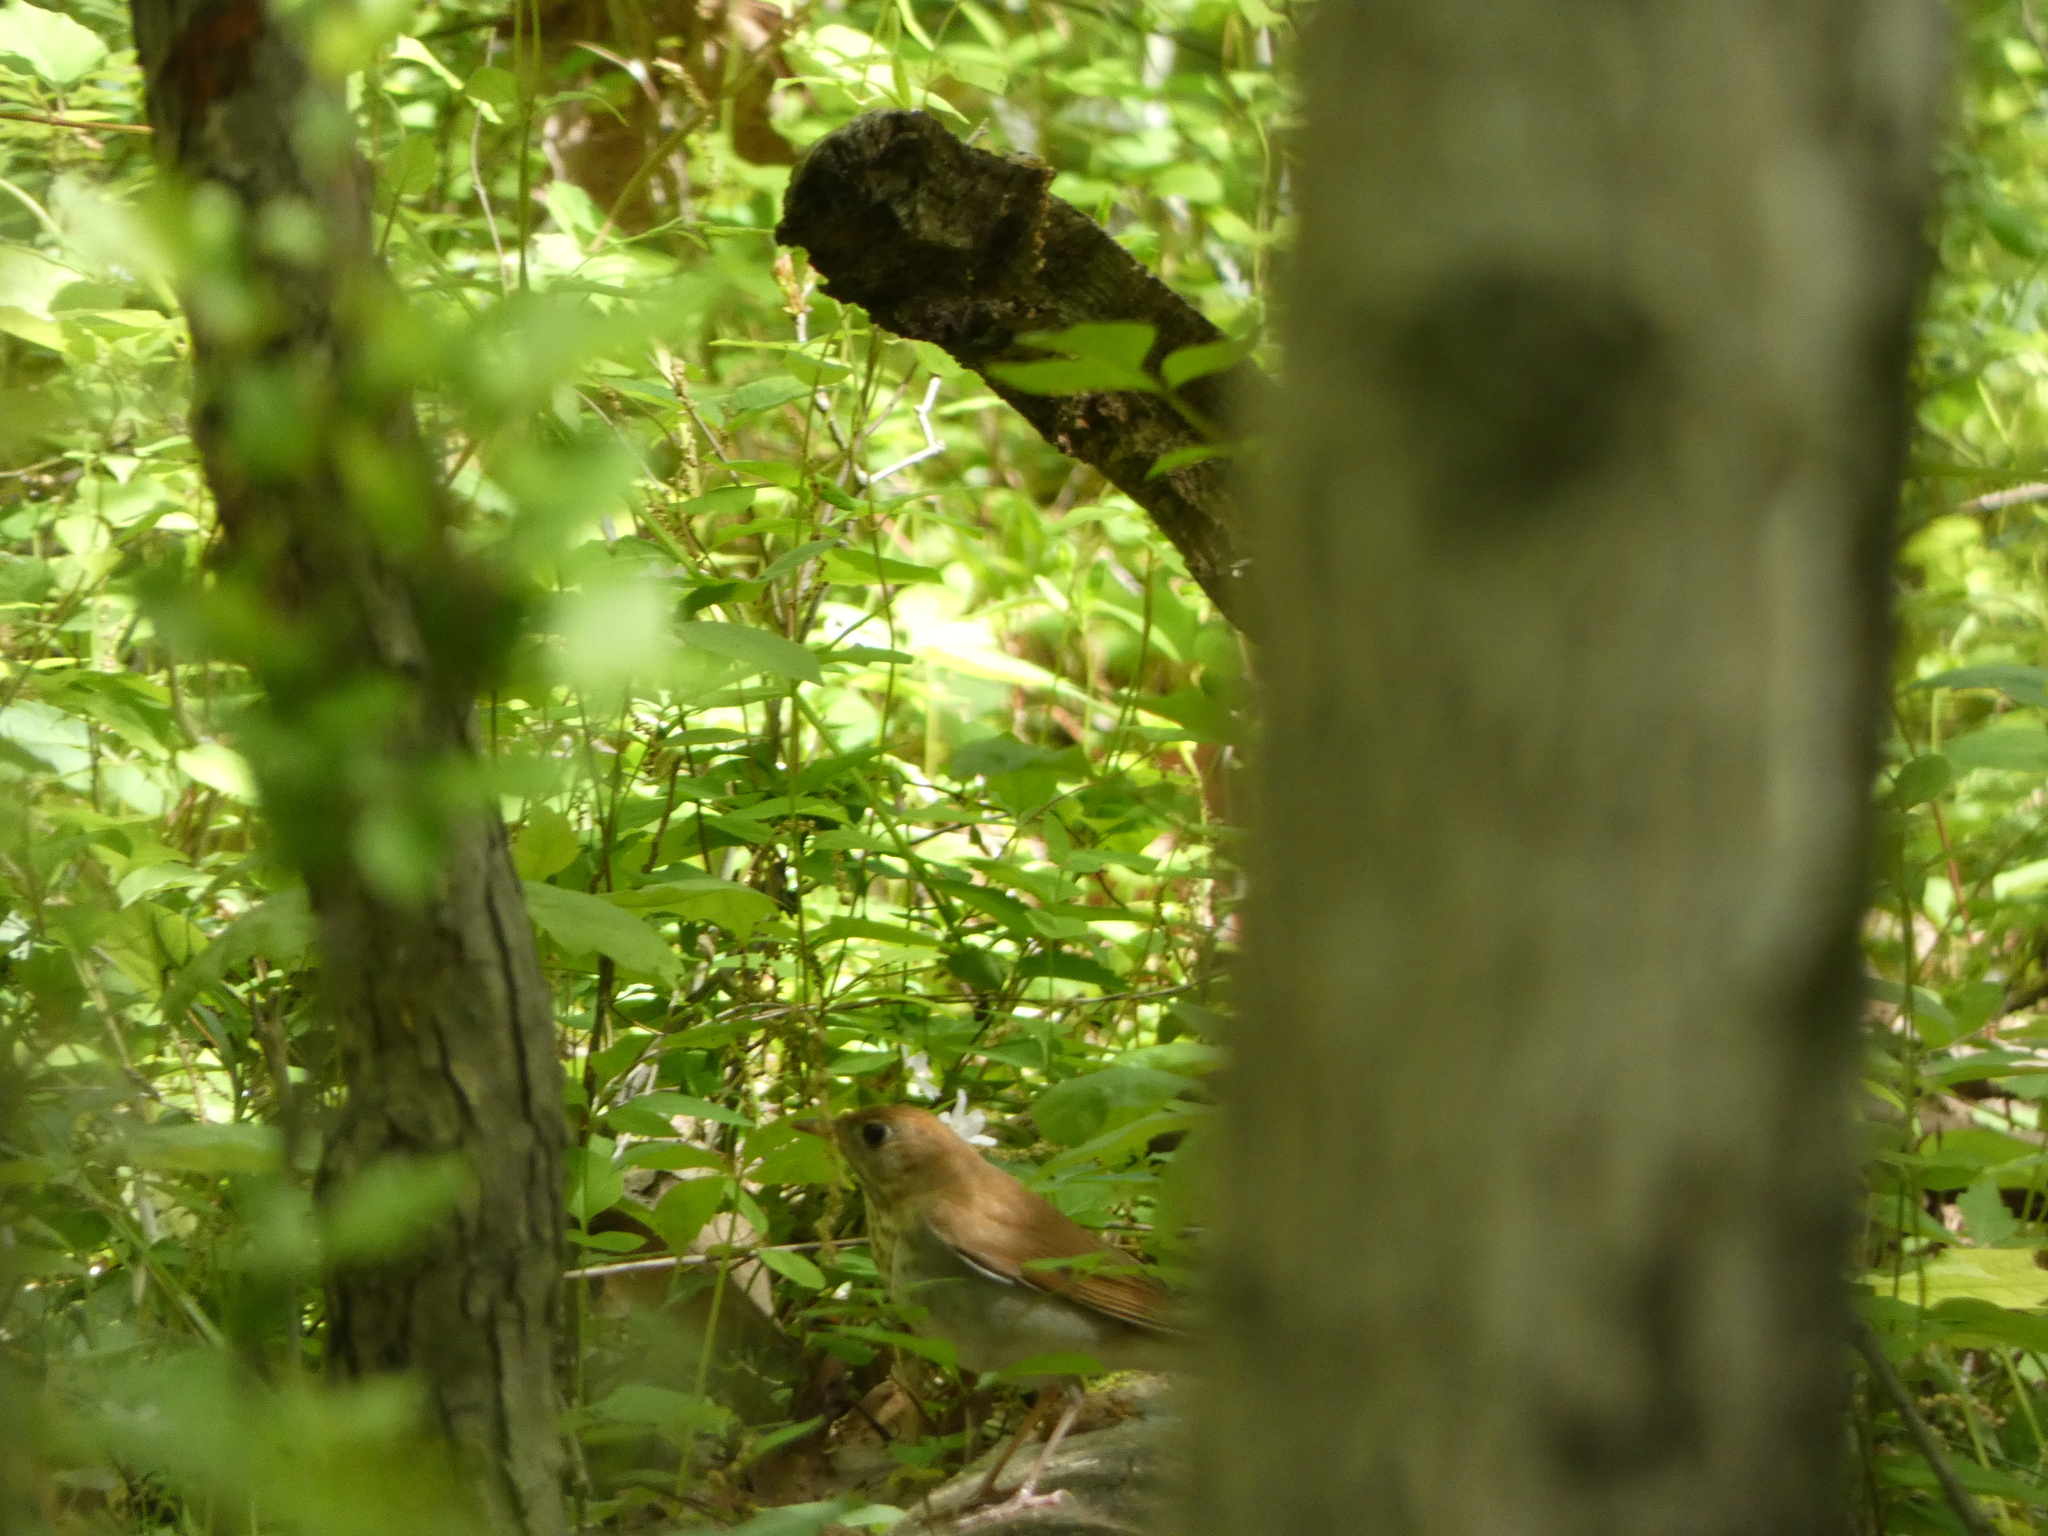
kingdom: Animalia
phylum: Chordata
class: Aves
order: Passeriformes
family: Turdidae
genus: Catharus
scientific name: Catharus fuscescens
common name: Veery
